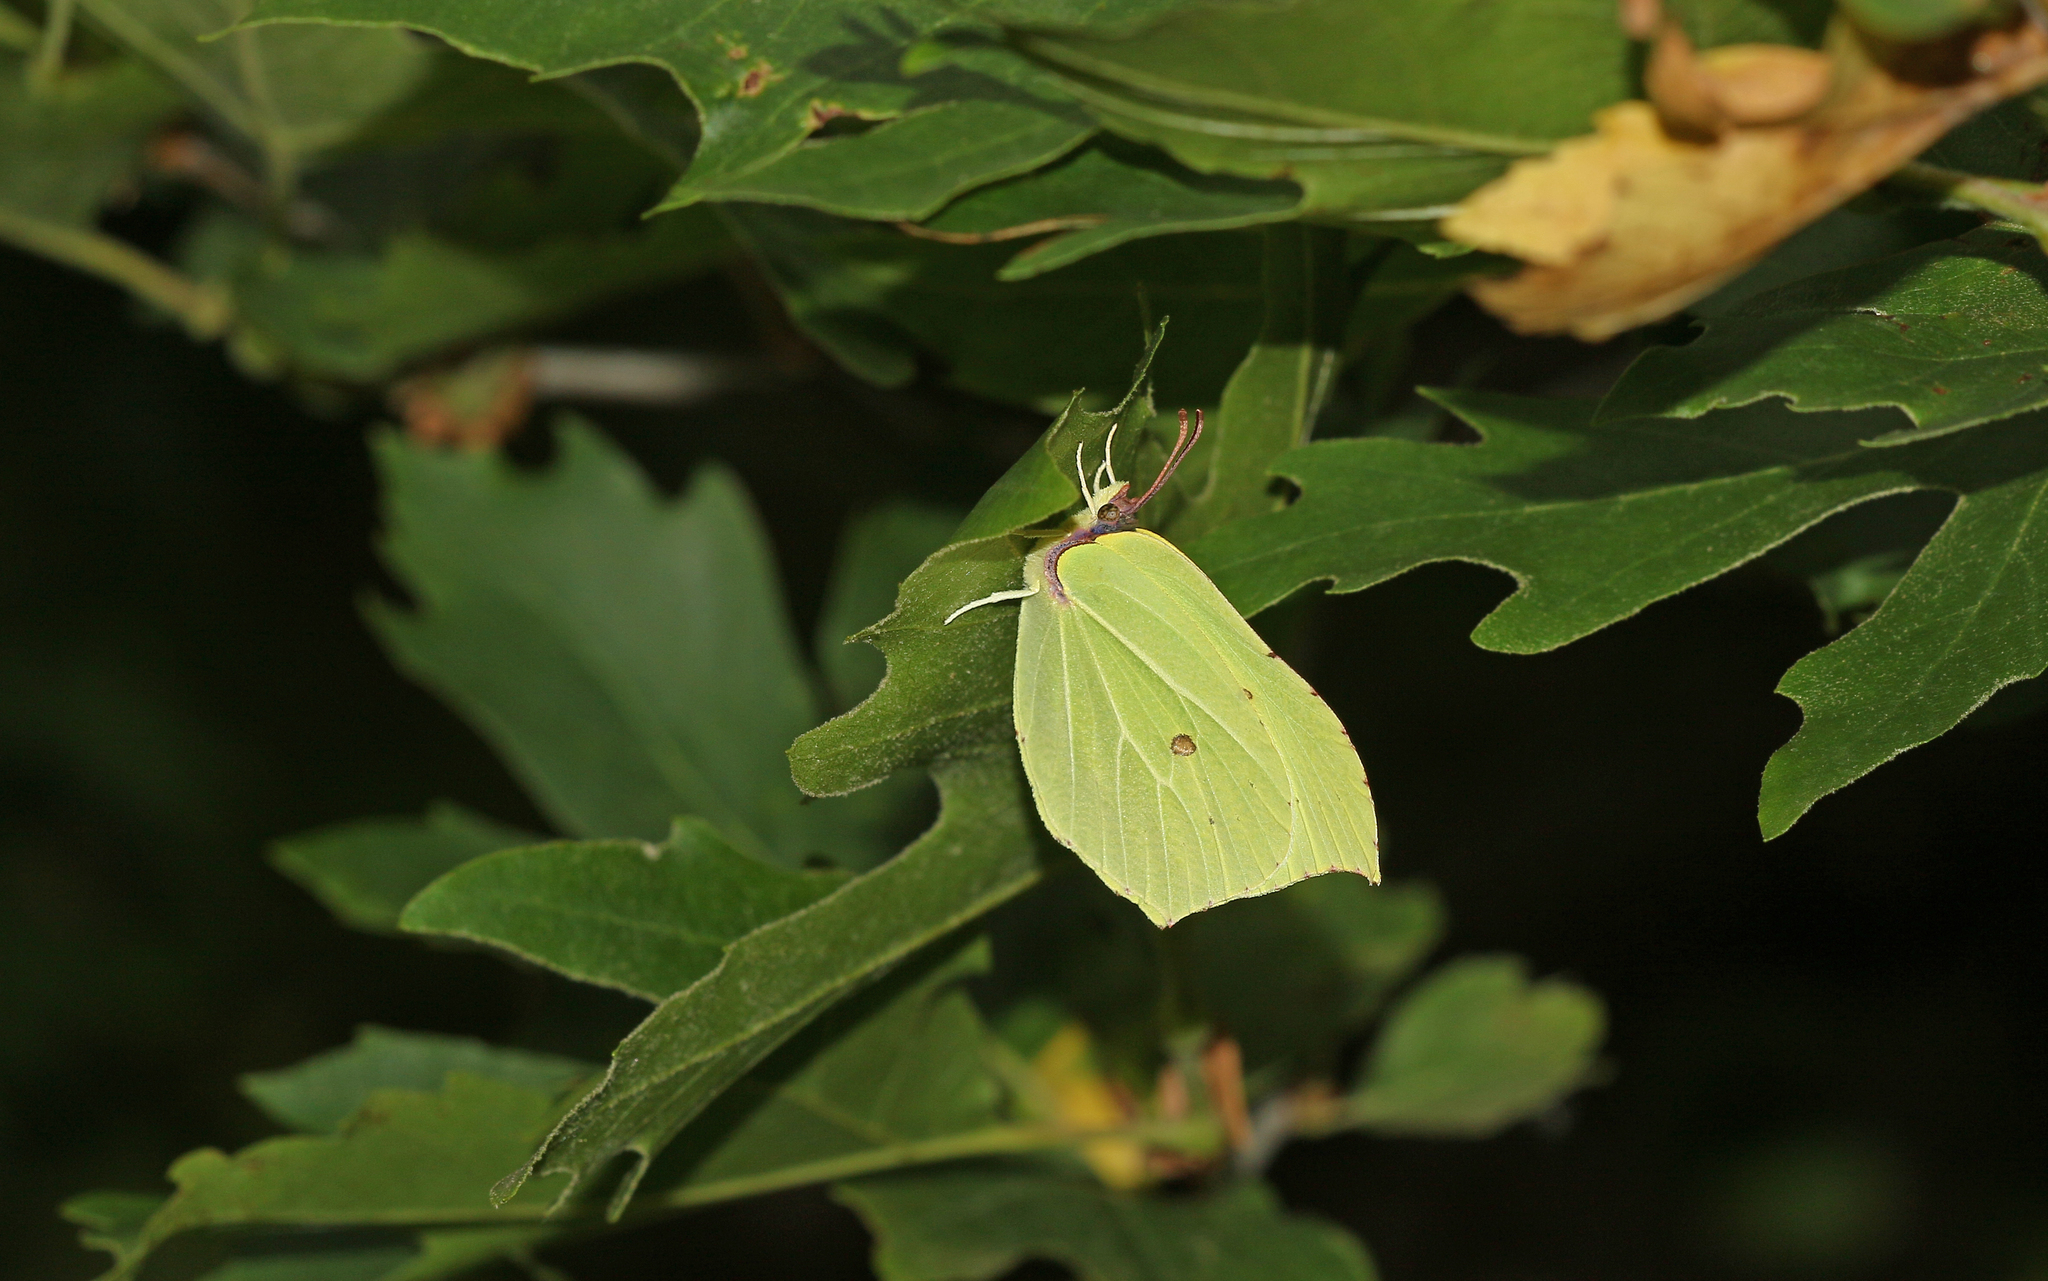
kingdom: Animalia
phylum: Arthropoda
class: Insecta
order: Lepidoptera
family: Pieridae
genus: Gonepteryx
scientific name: Gonepteryx rhamni
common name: Brimstone
